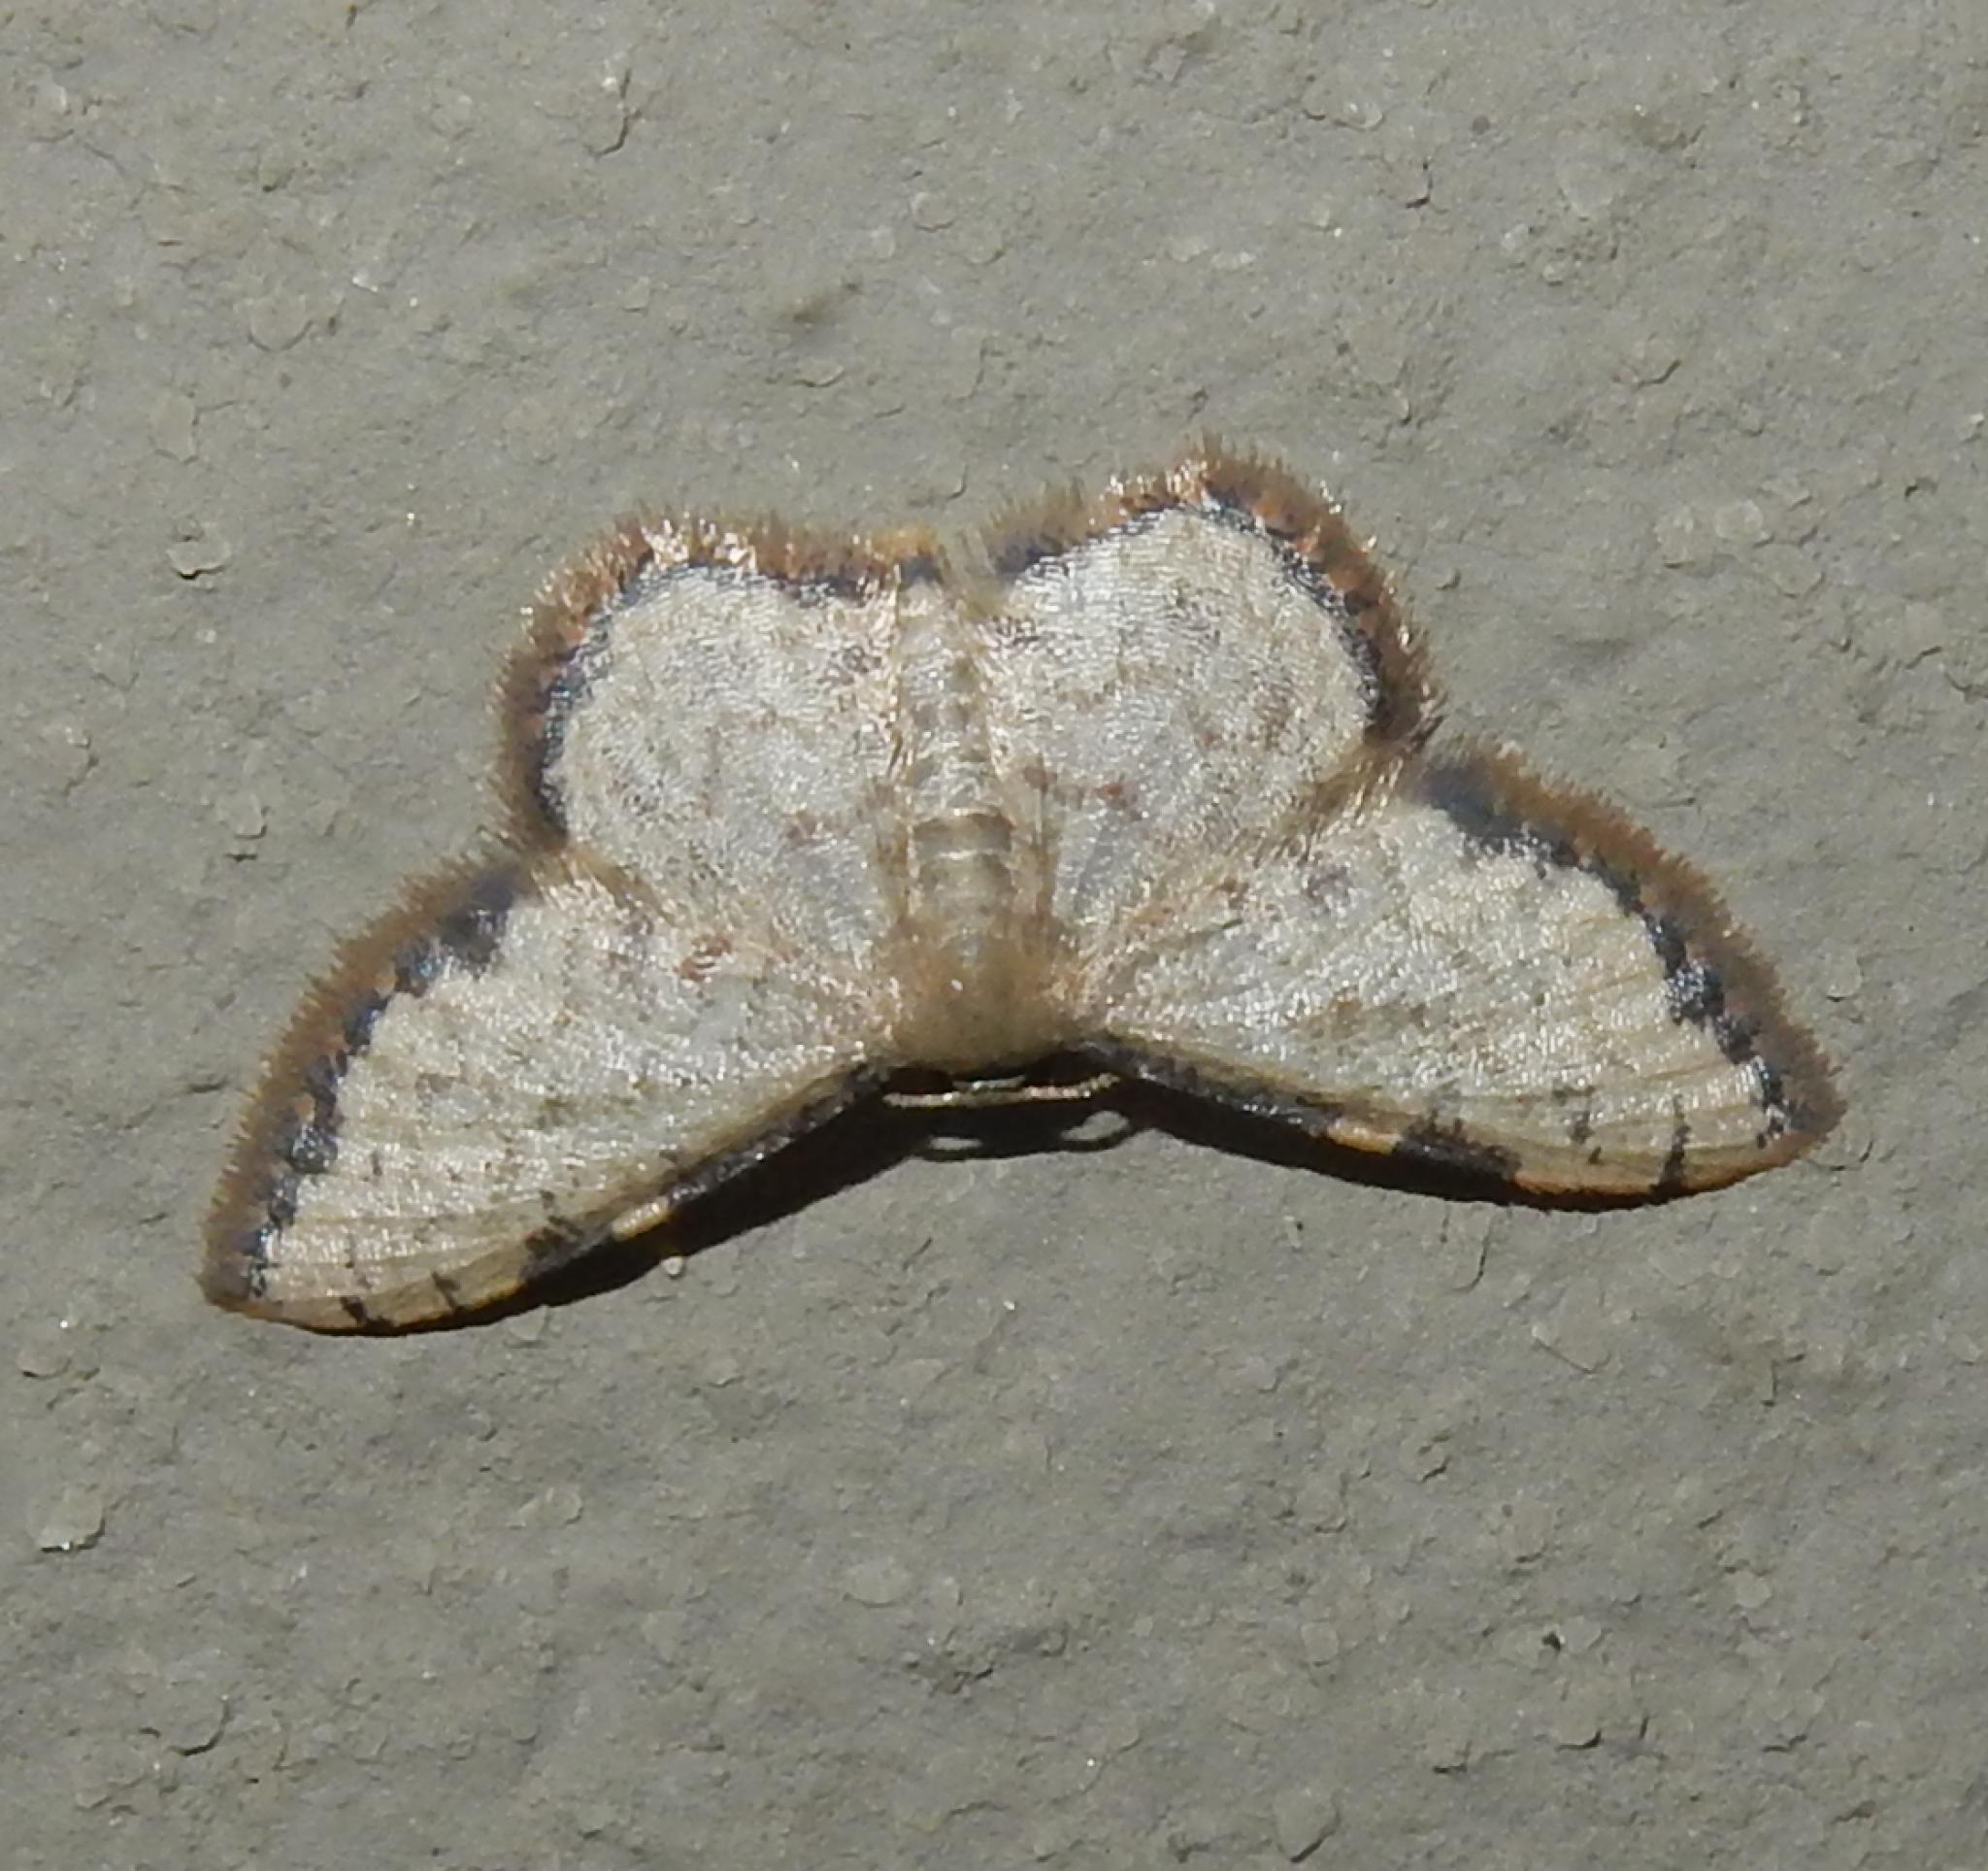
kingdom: Animalia
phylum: Arthropoda
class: Insecta
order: Lepidoptera
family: Geometridae
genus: Idaea
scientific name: Idaea sublimbaria
